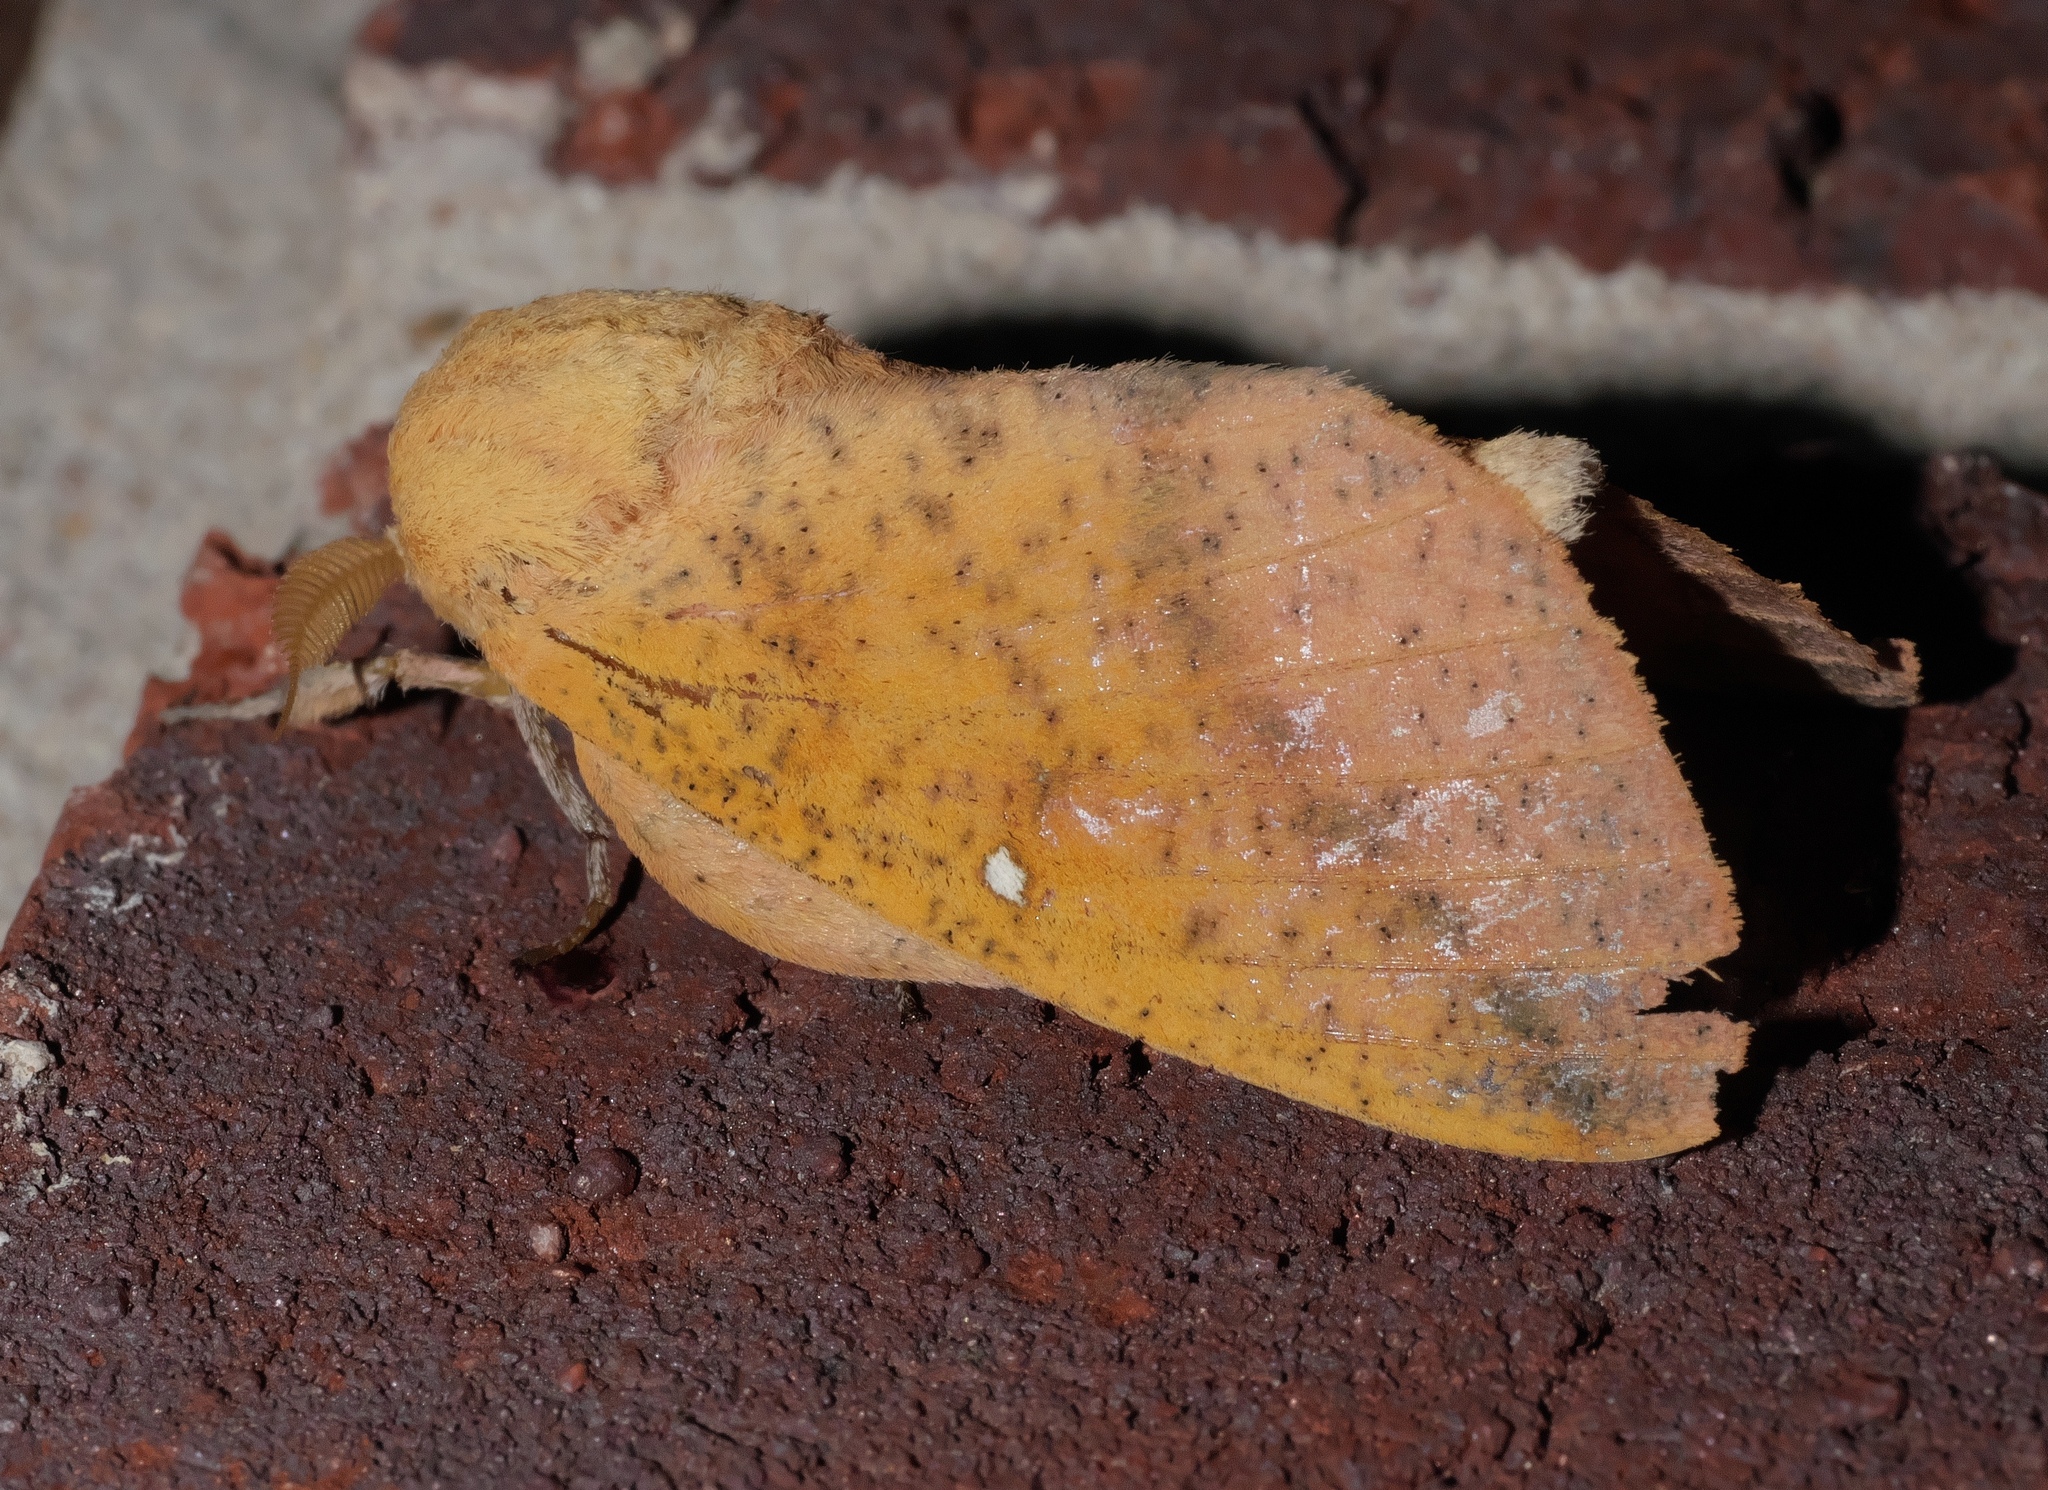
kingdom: Animalia
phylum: Arthropoda
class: Insecta
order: Lepidoptera
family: Saturniidae
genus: Syssphinx
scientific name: Syssphinx bicolor
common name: Honey locust moth
